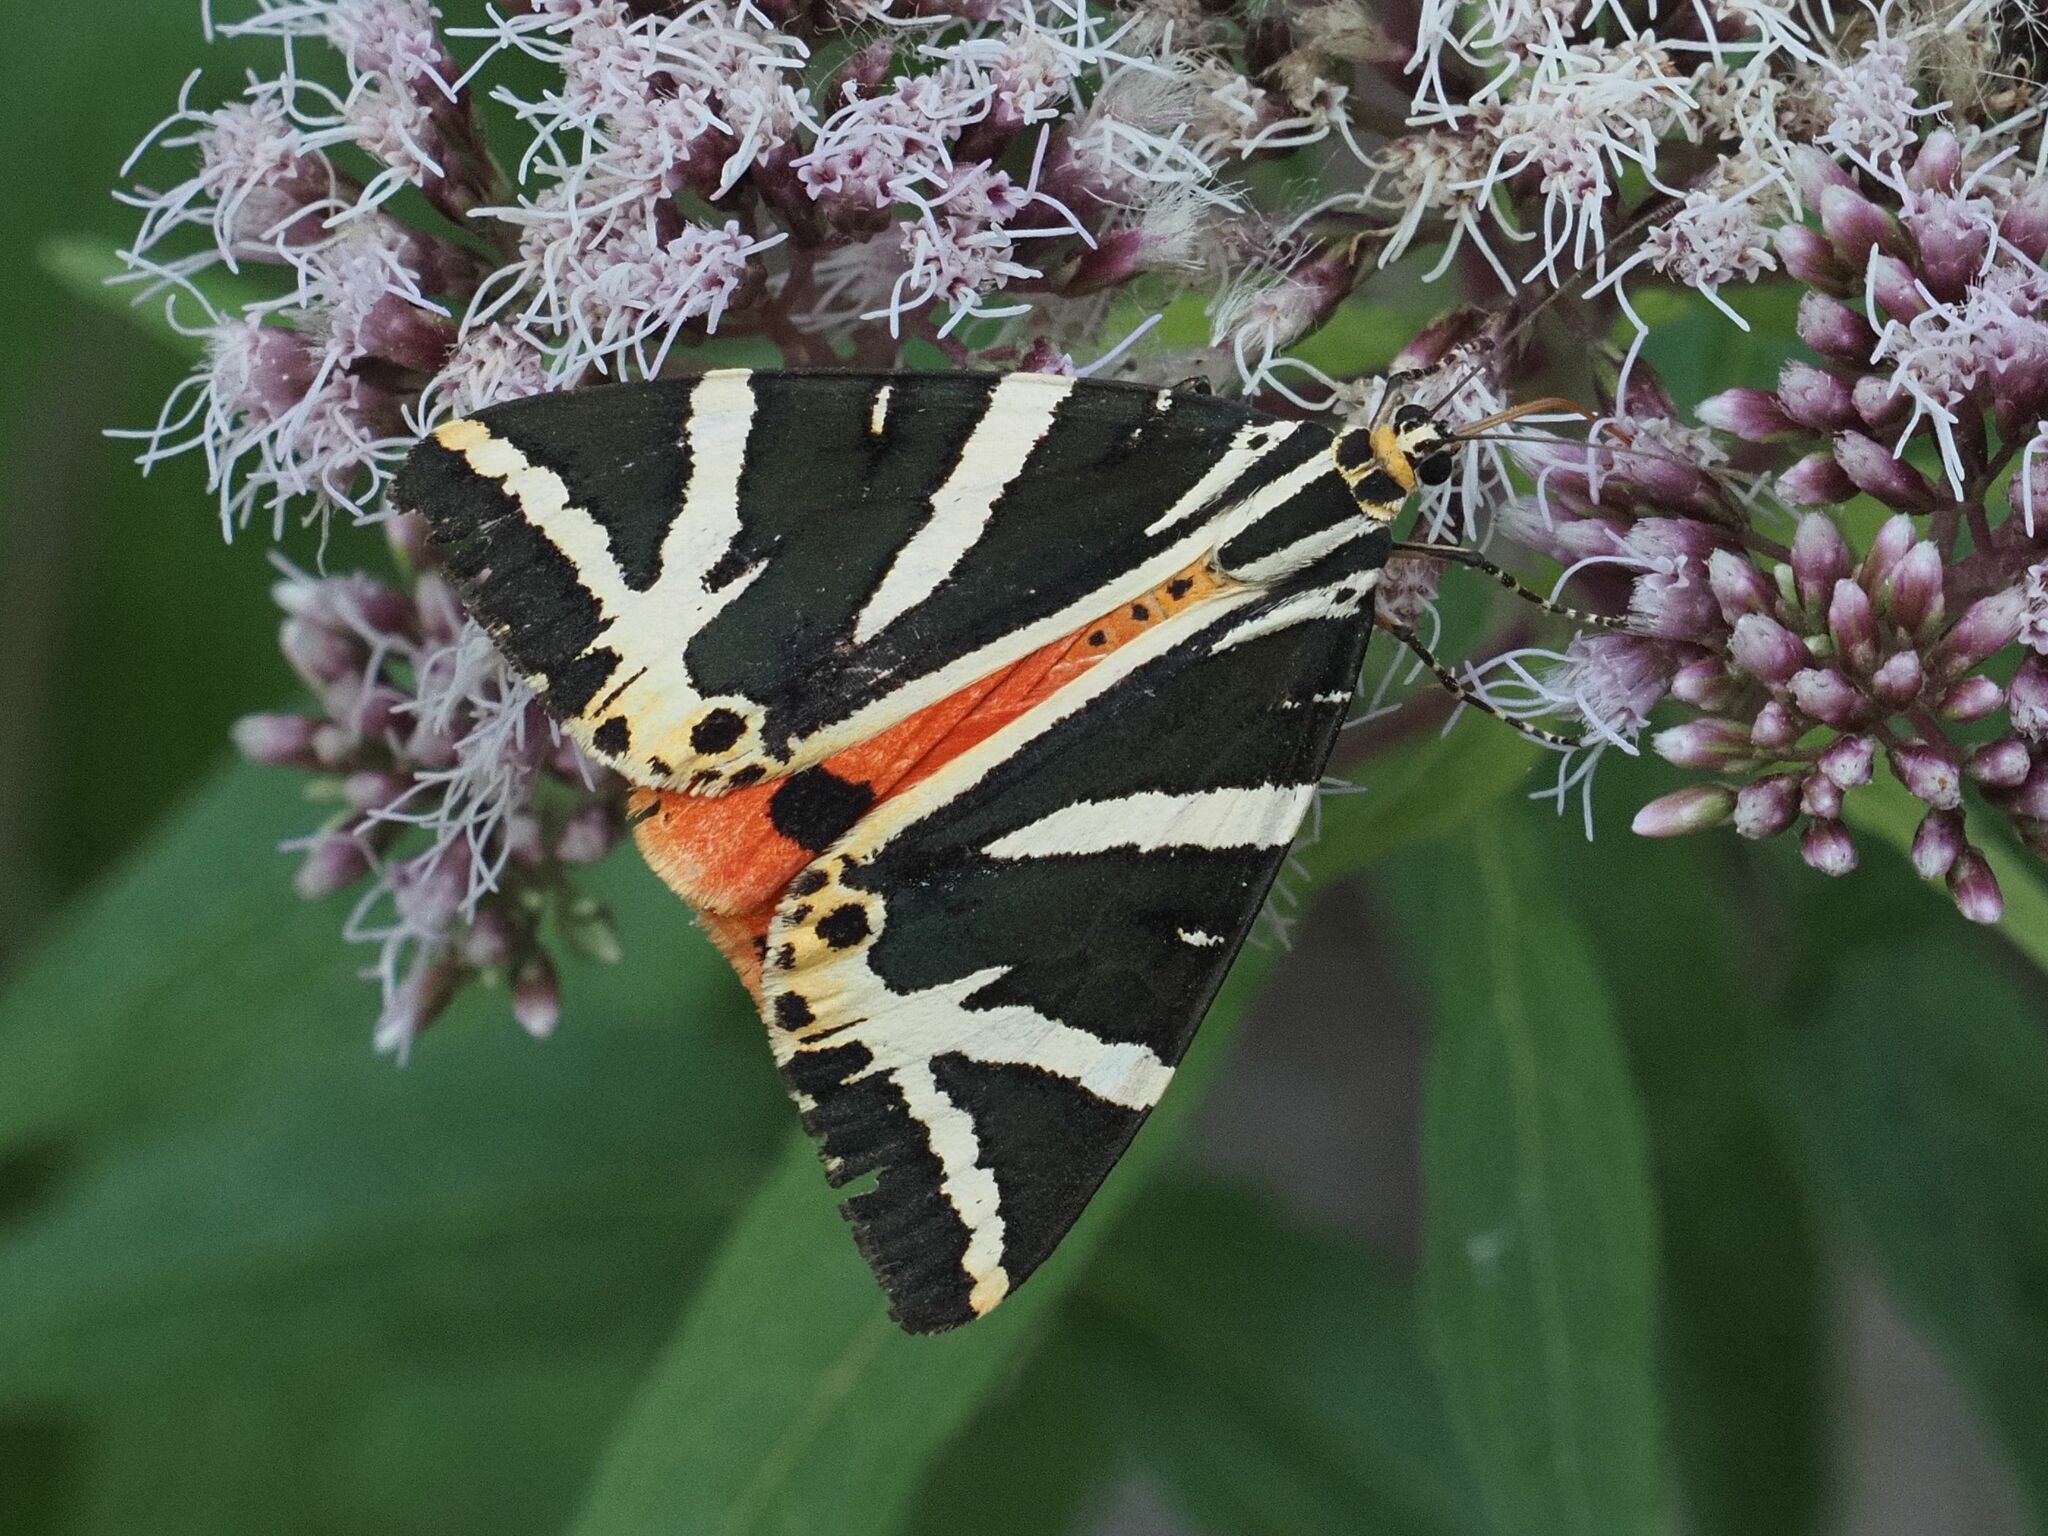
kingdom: Animalia
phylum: Arthropoda
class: Insecta
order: Lepidoptera
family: Erebidae
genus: Euplagia
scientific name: Euplagia quadripunctaria
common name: Jersey tiger
